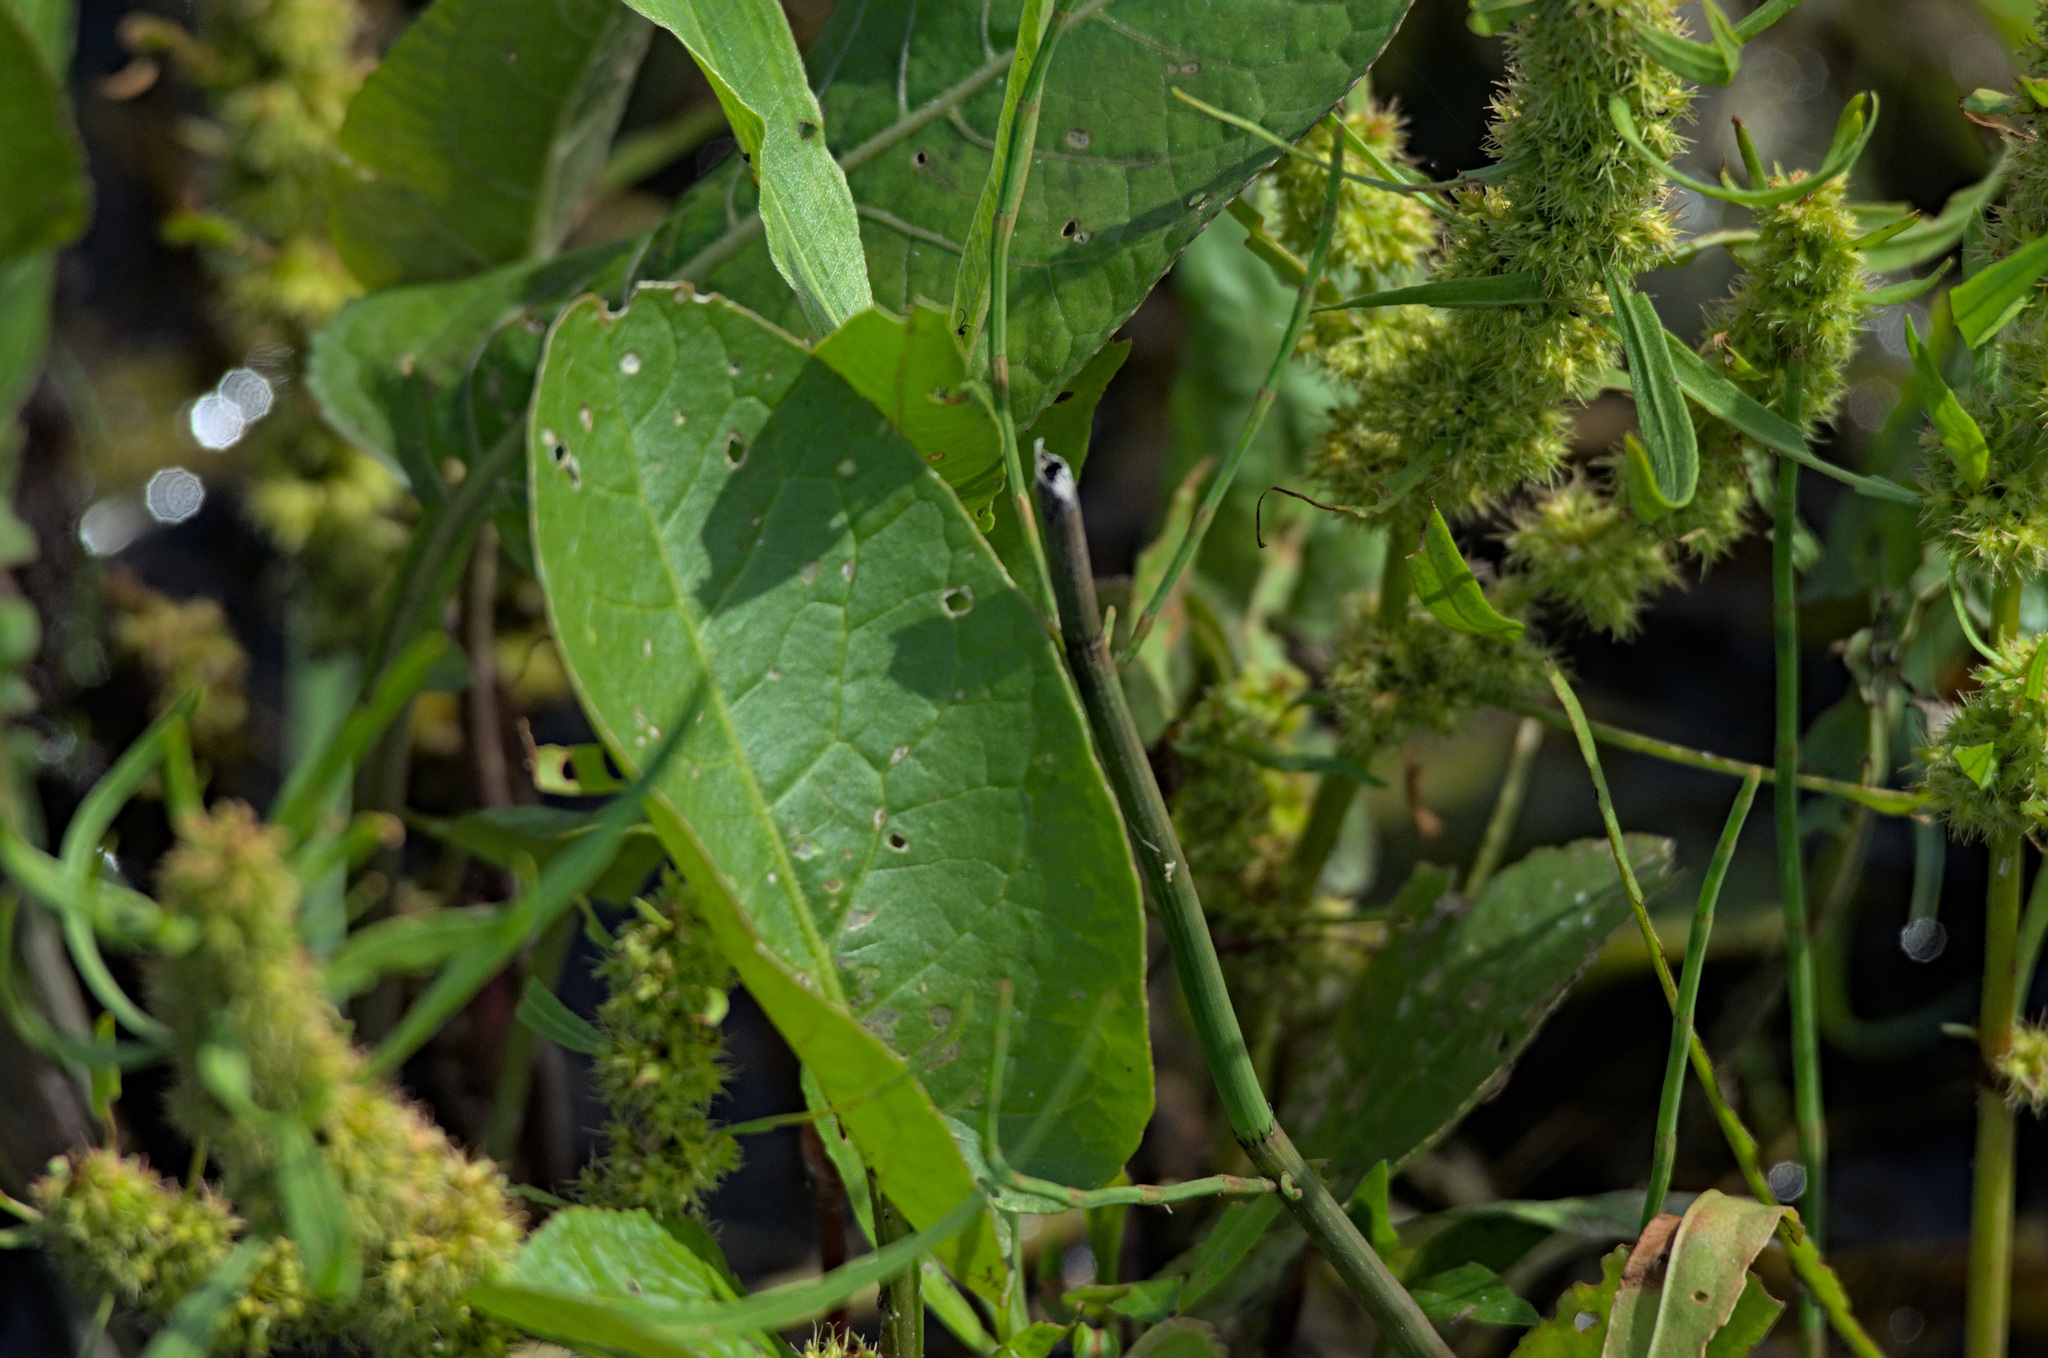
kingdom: Plantae
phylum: Tracheophyta
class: Magnoliopsida
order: Caryophyllales
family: Polygonaceae
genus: Rumex
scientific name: Rumex maritimus
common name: Golden dock
